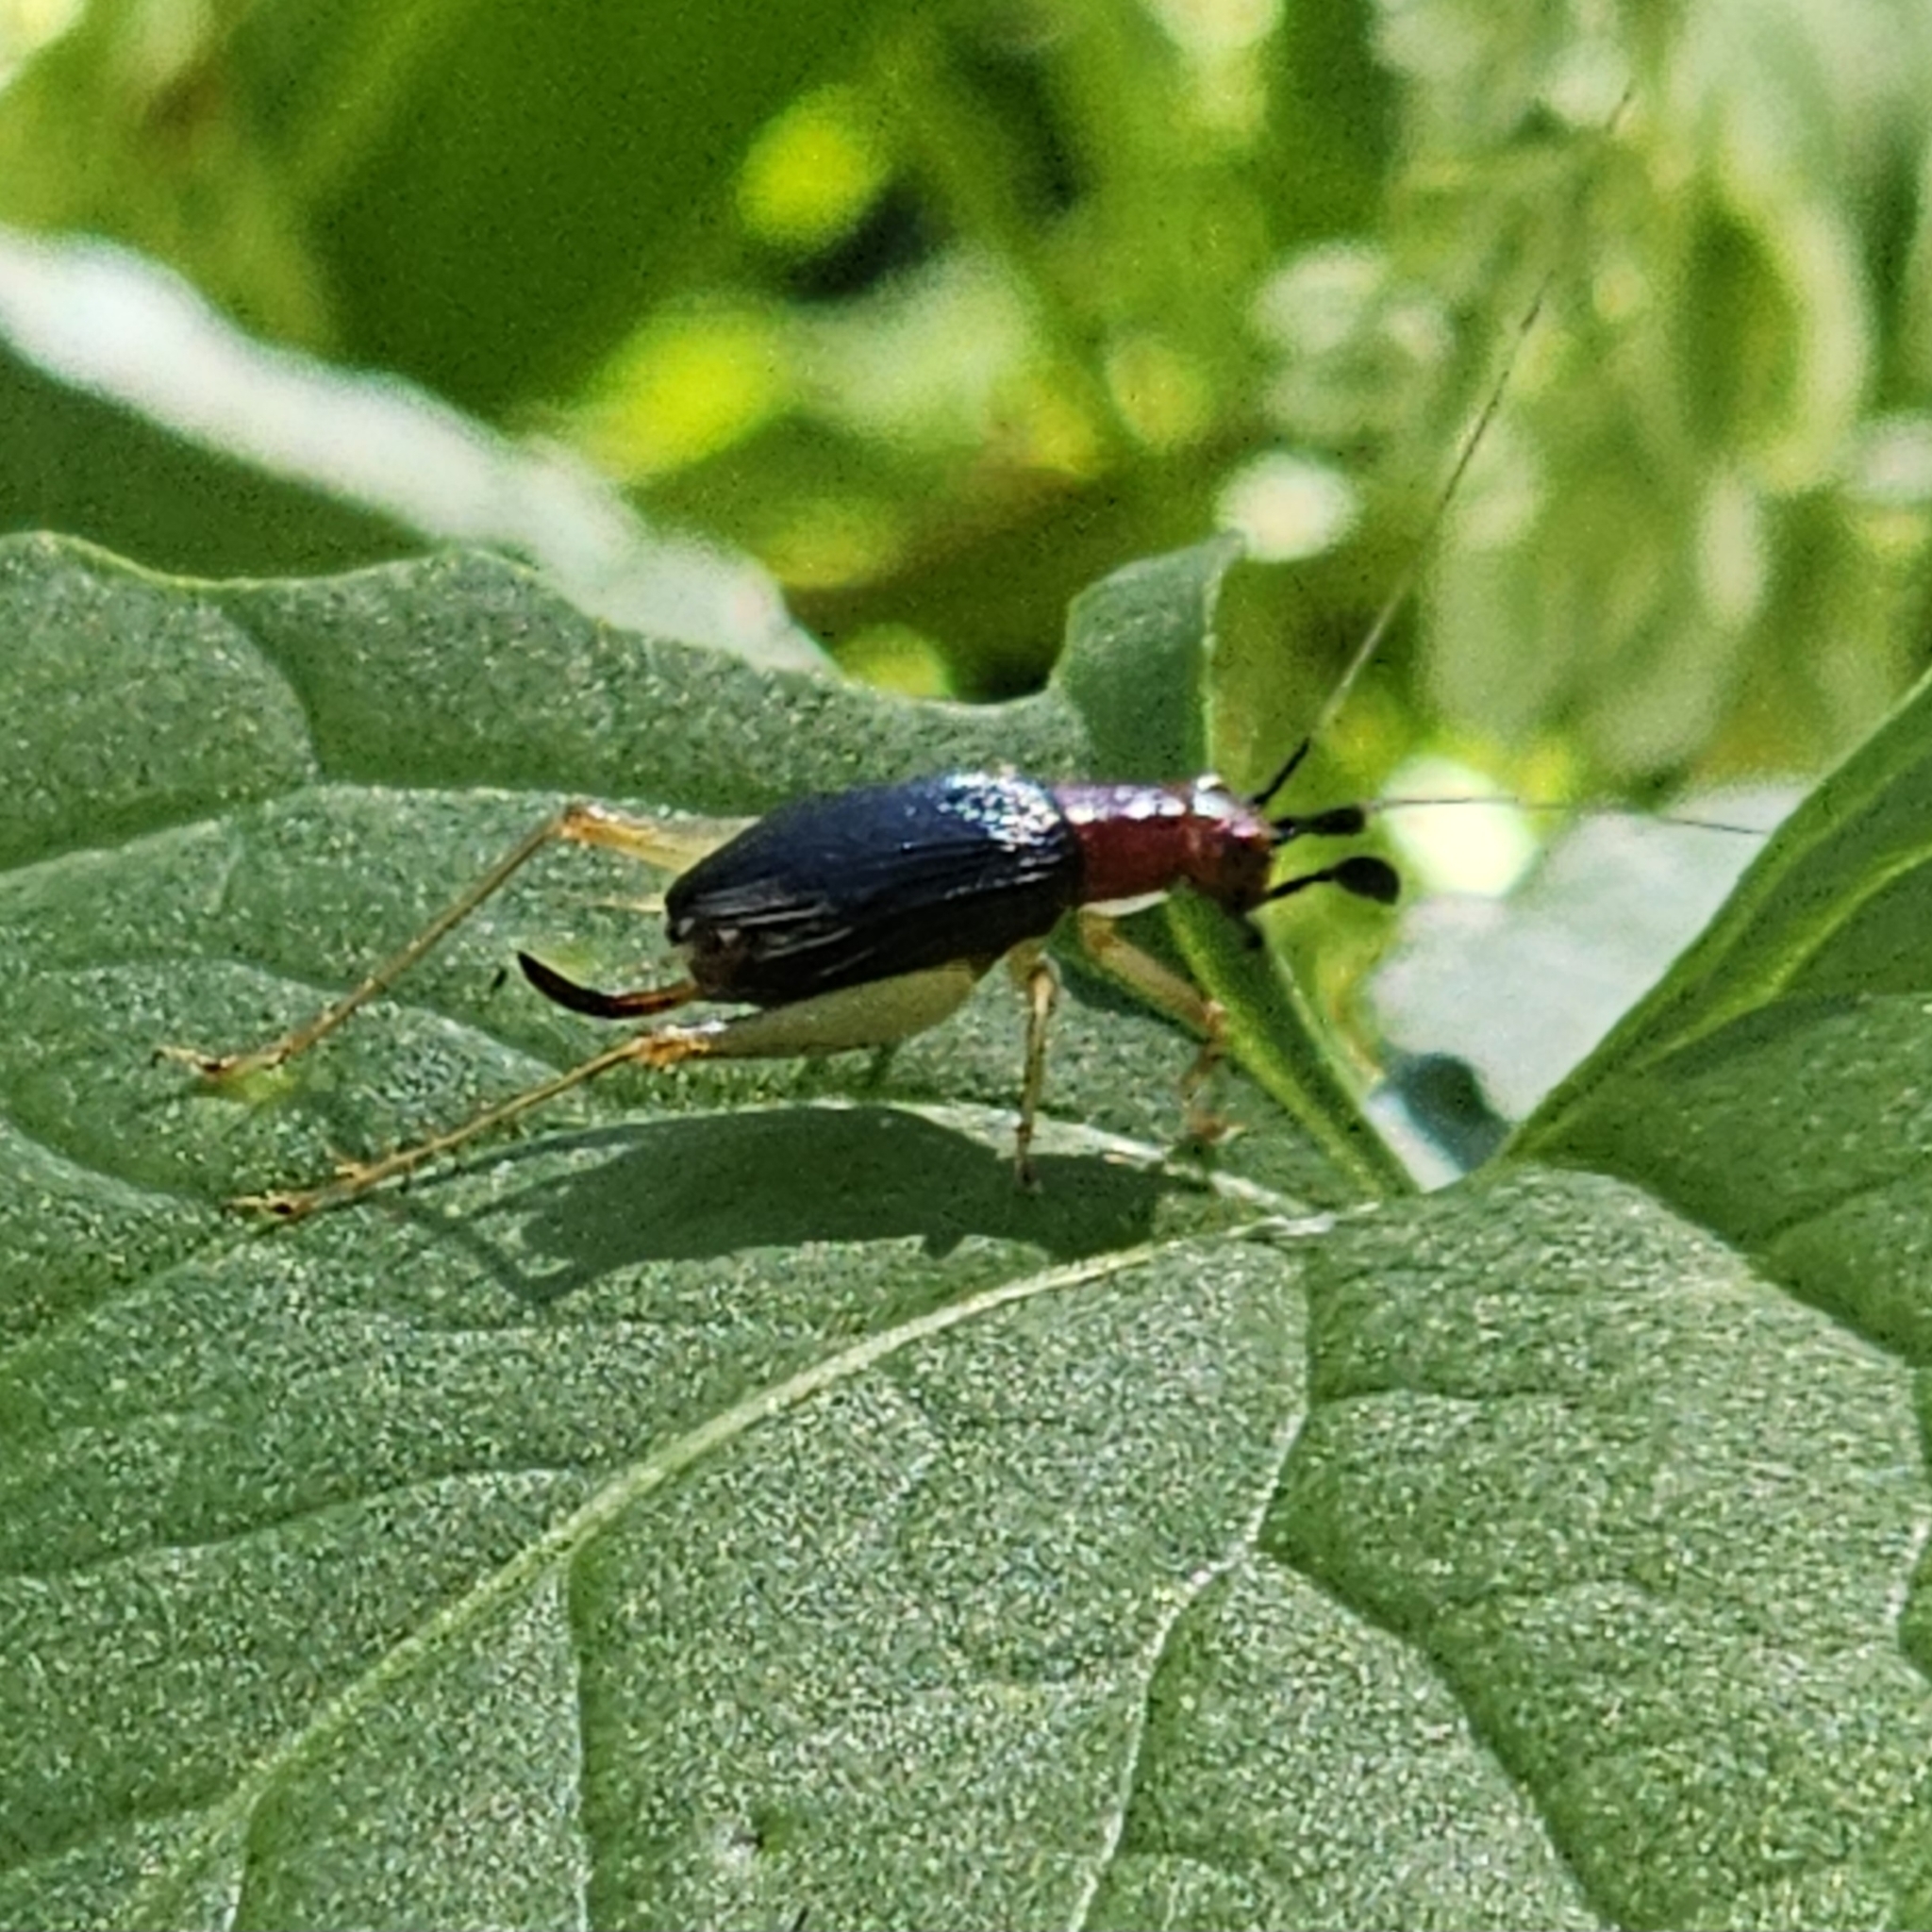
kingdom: Animalia
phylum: Arthropoda
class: Insecta
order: Orthoptera
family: Trigonidiidae
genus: Phyllopalpus
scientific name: Phyllopalpus pulchellus
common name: Handsome trig
